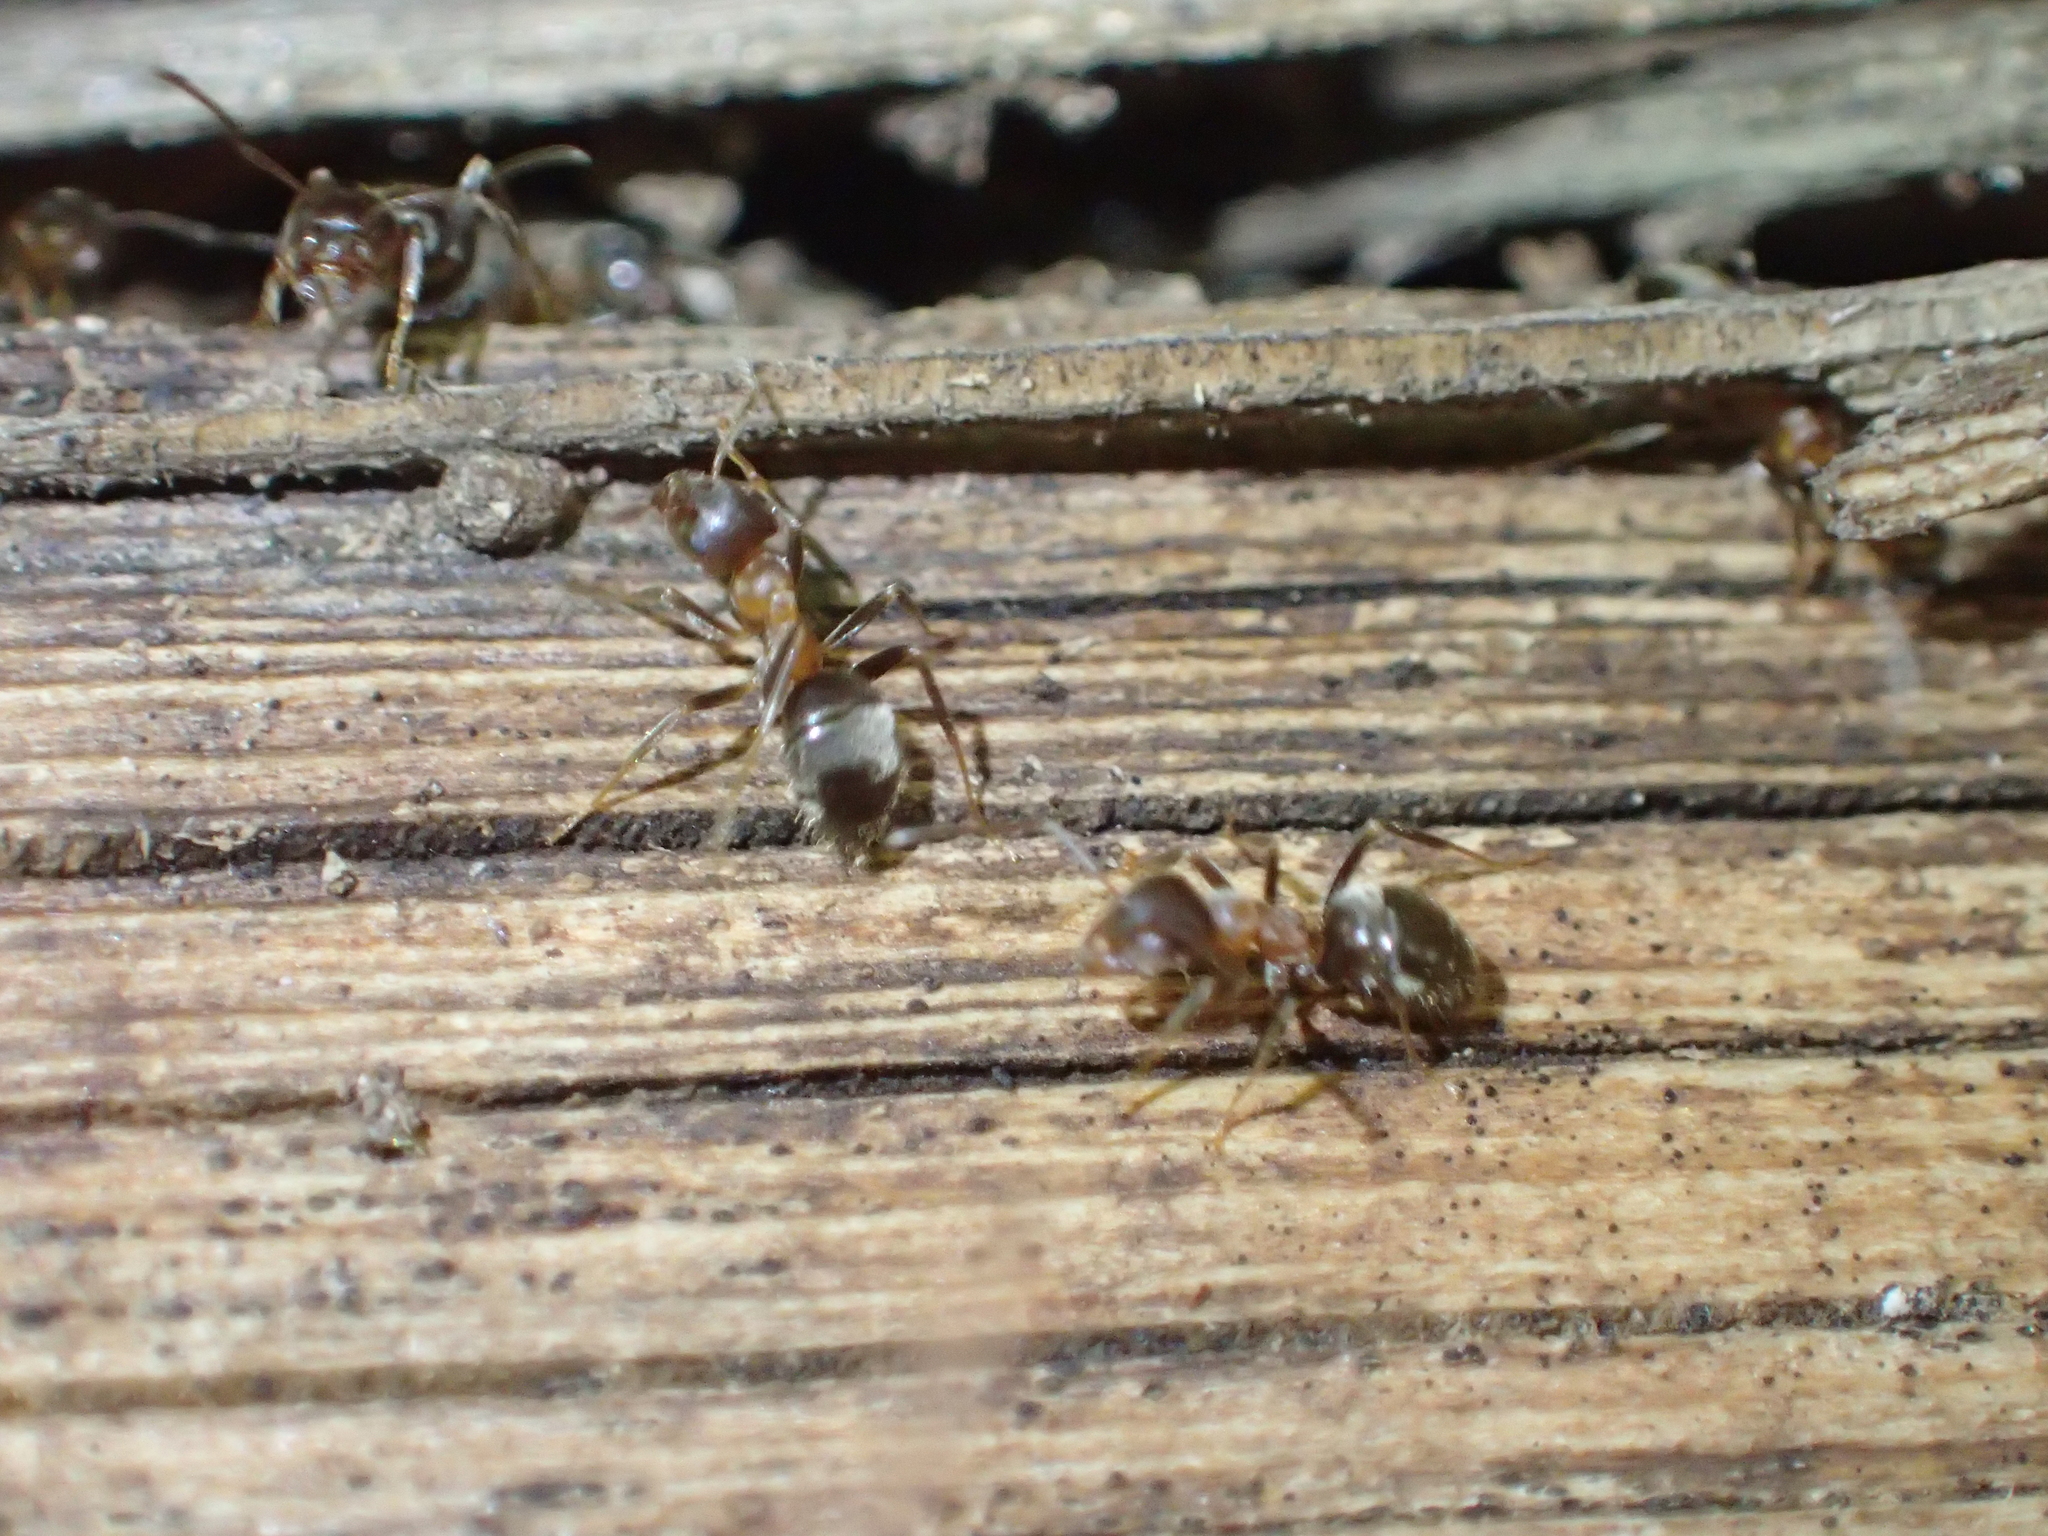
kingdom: Animalia
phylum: Arthropoda
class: Insecta
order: Hymenoptera
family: Formicidae
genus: Lasius
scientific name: Lasius emarginatus
